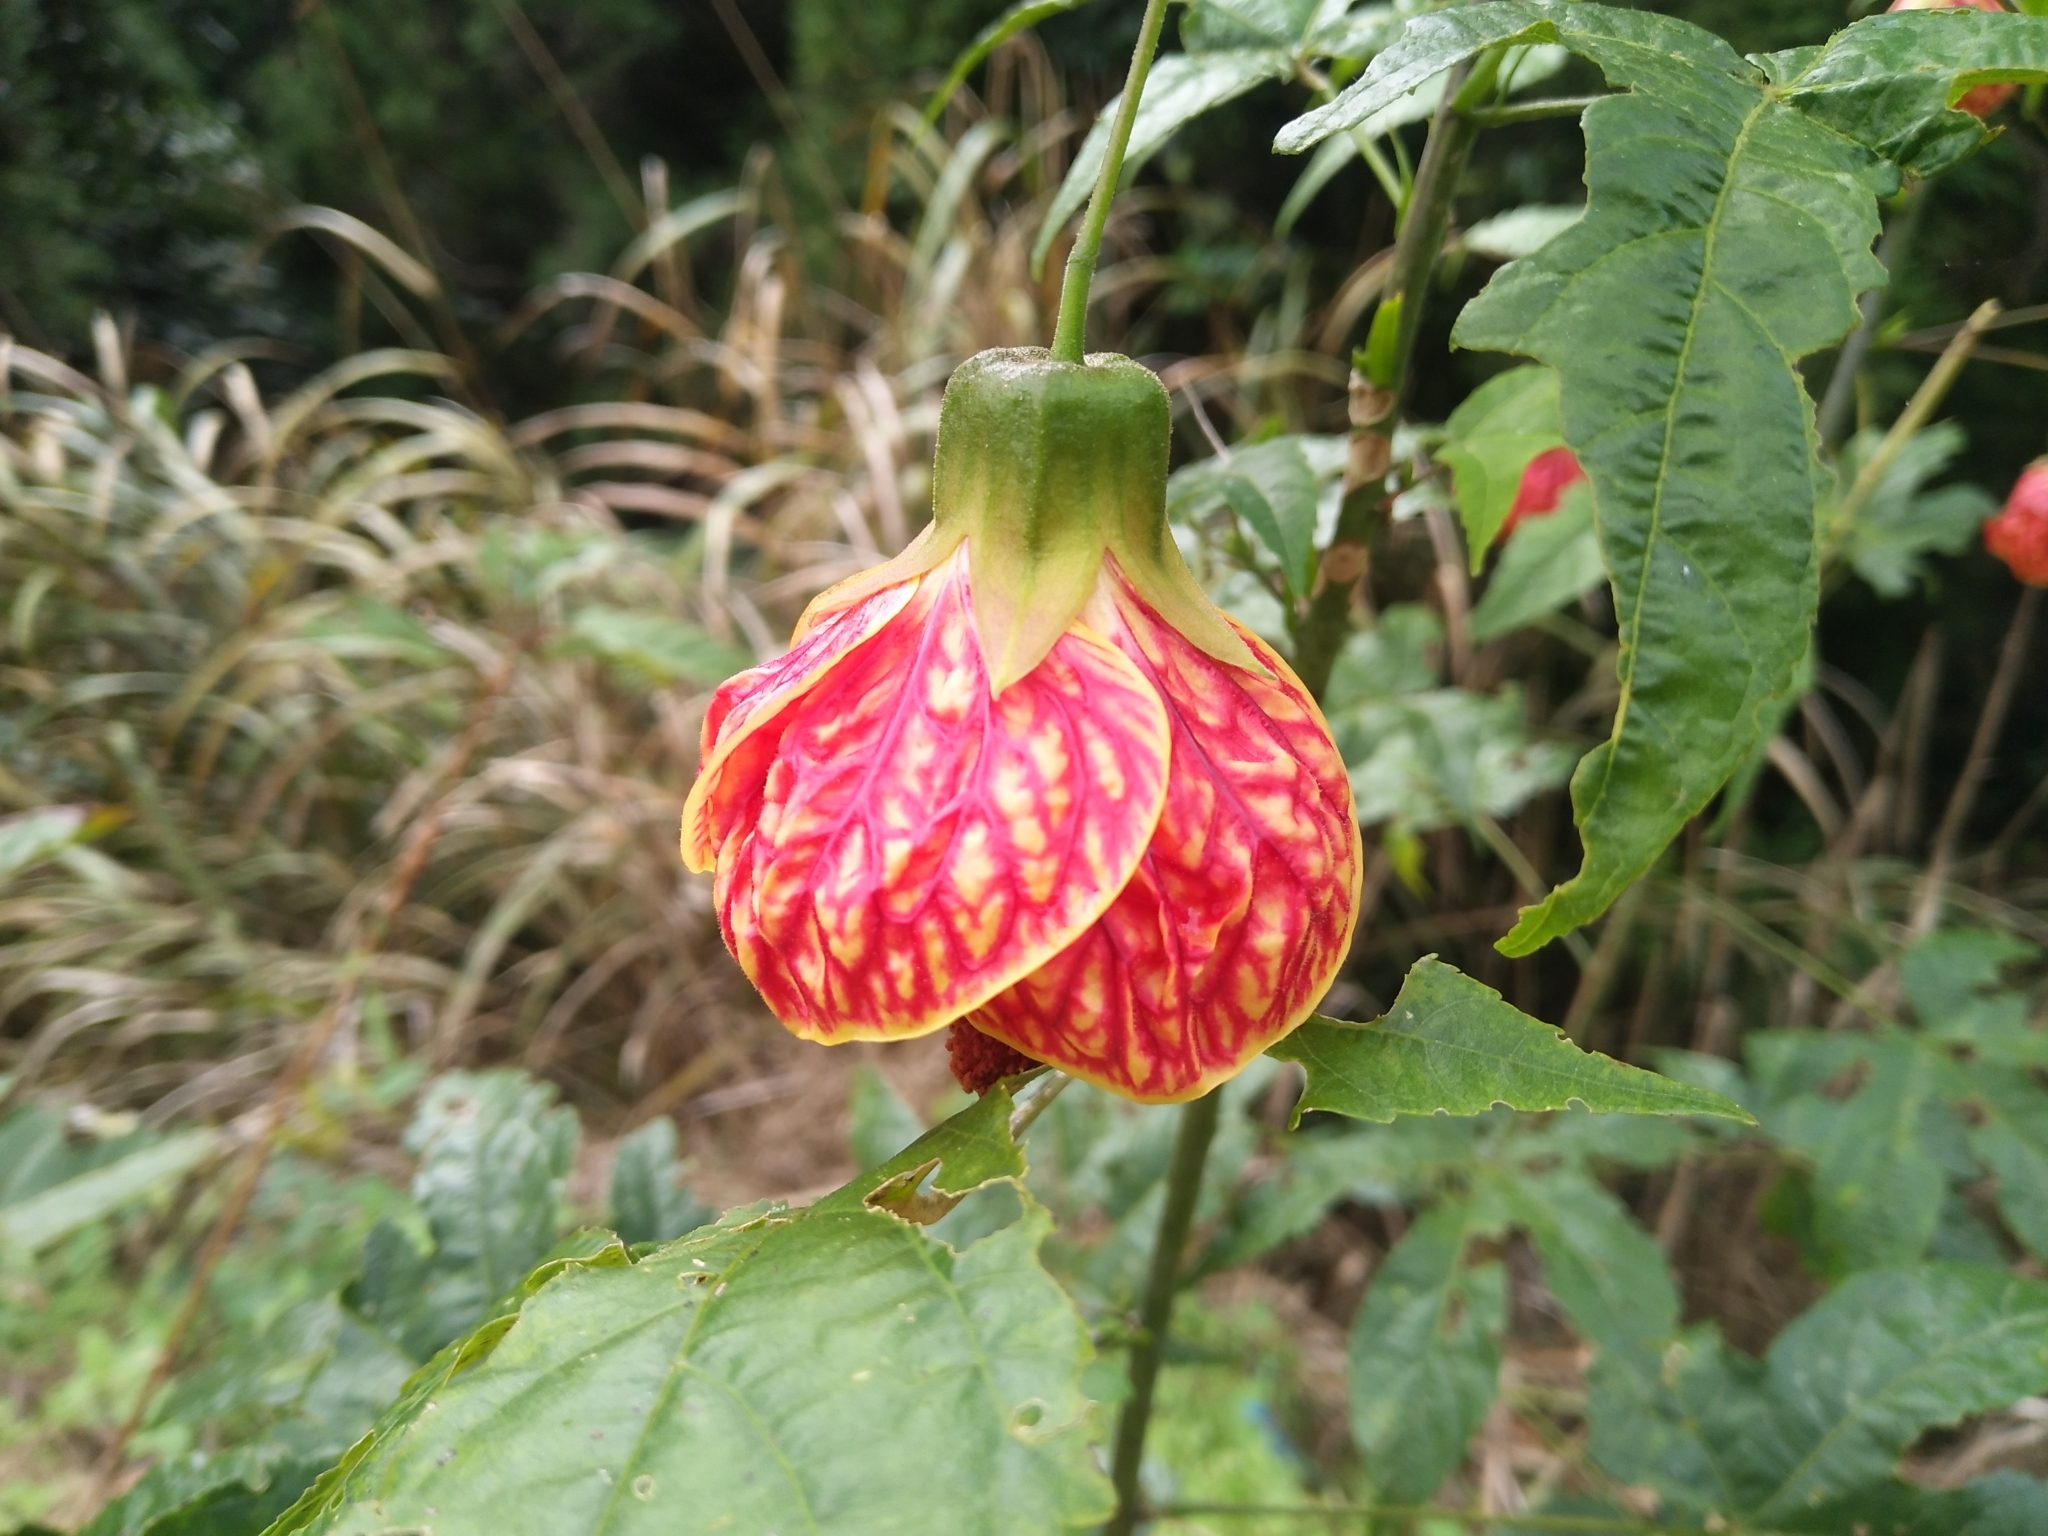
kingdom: Plantae
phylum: Tracheophyta
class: Magnoliopsida
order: Malvales
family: Malvaceae
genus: Callianthe
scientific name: Callianthe picta
